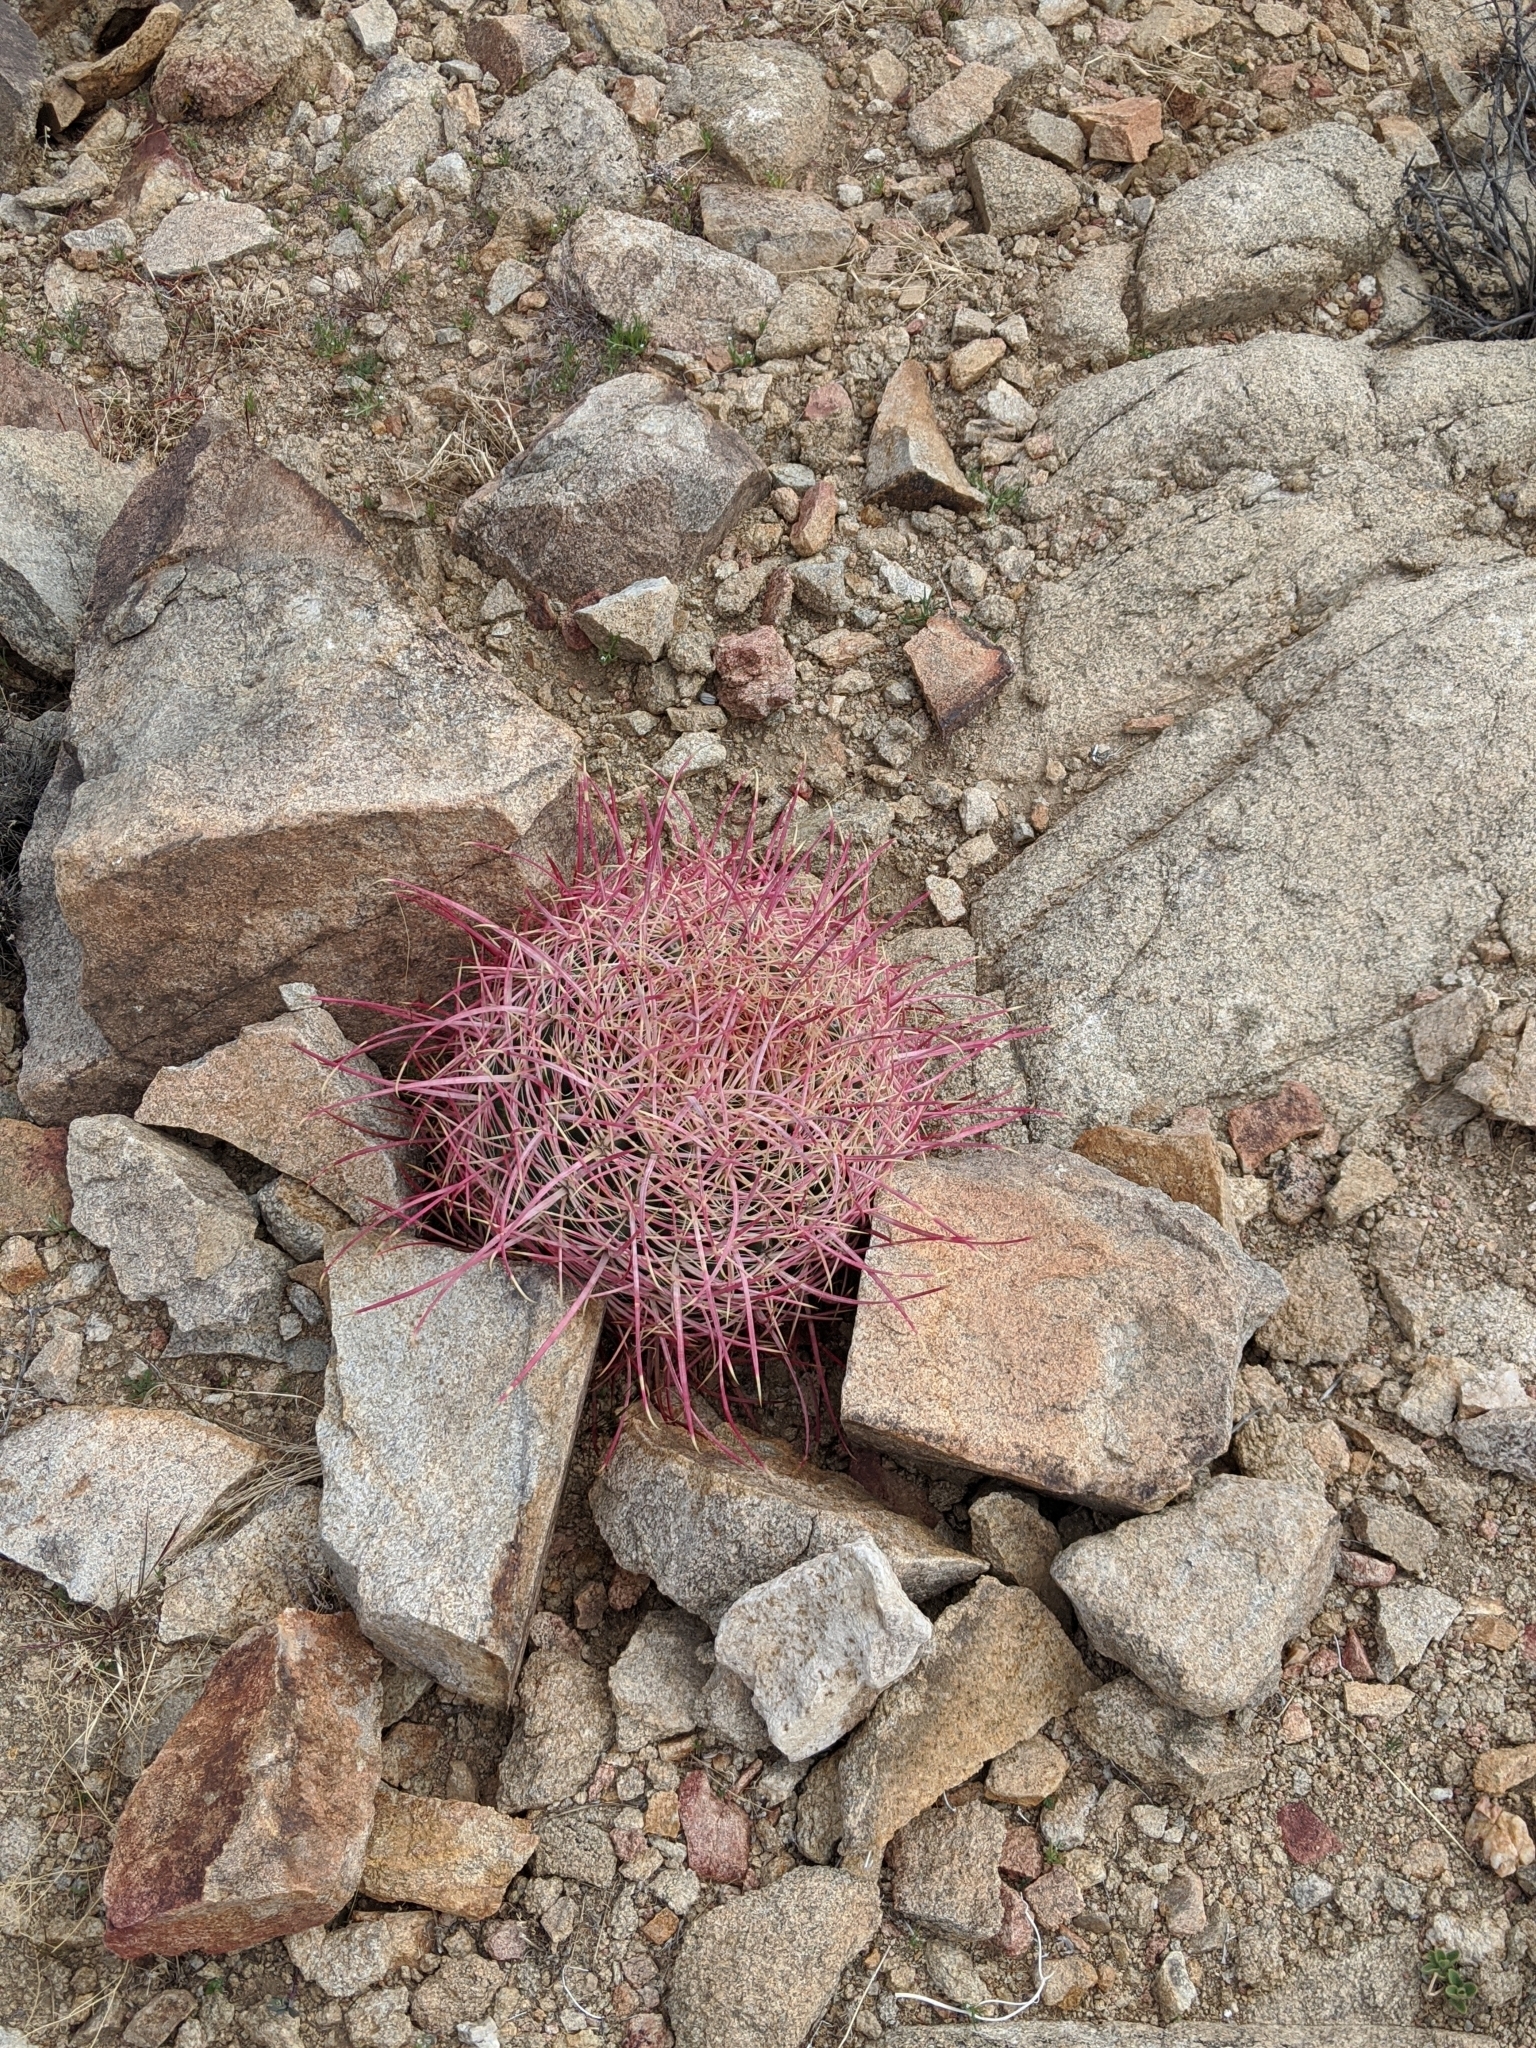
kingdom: Plantae
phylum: Tracheophyta
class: Magnoliopsida
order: Caryophyllales
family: Cactaceae
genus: Ferocactus
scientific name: Ferocactus cylindraceus
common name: California barrel cactus
